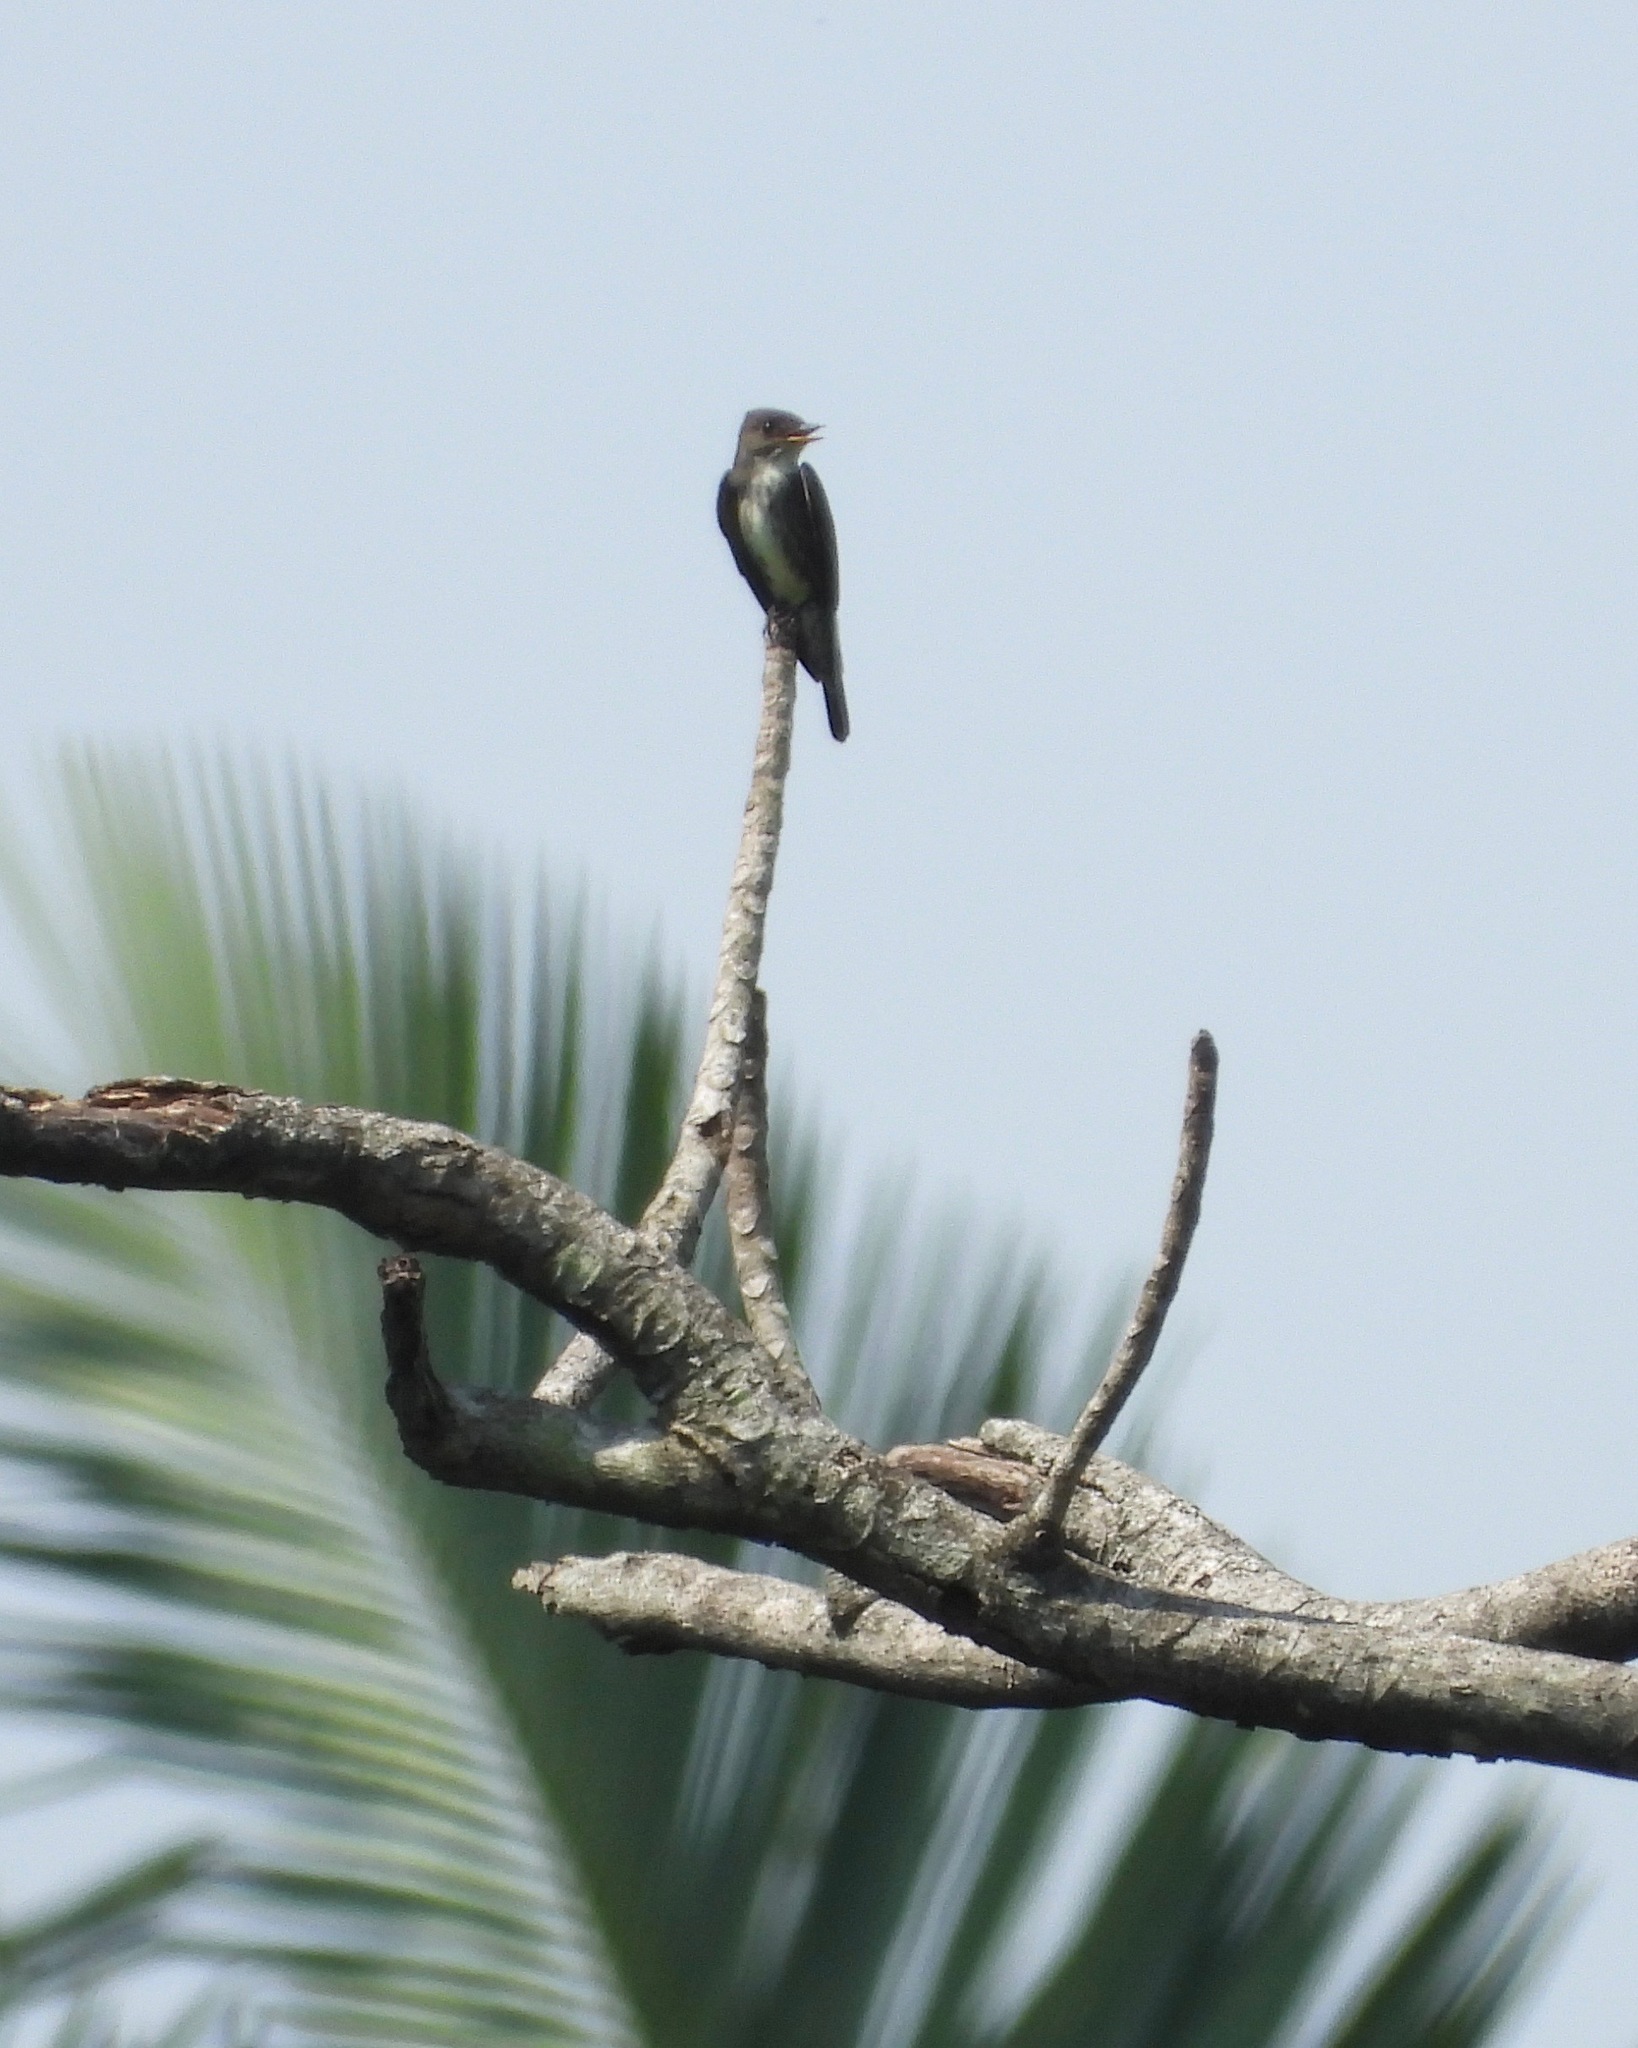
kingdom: Animalia
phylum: Chordata
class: Aves
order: Passeriformes
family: Tyrannidae
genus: Contopus
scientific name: Contopus cooperi
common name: Olive-sided flycatcher
